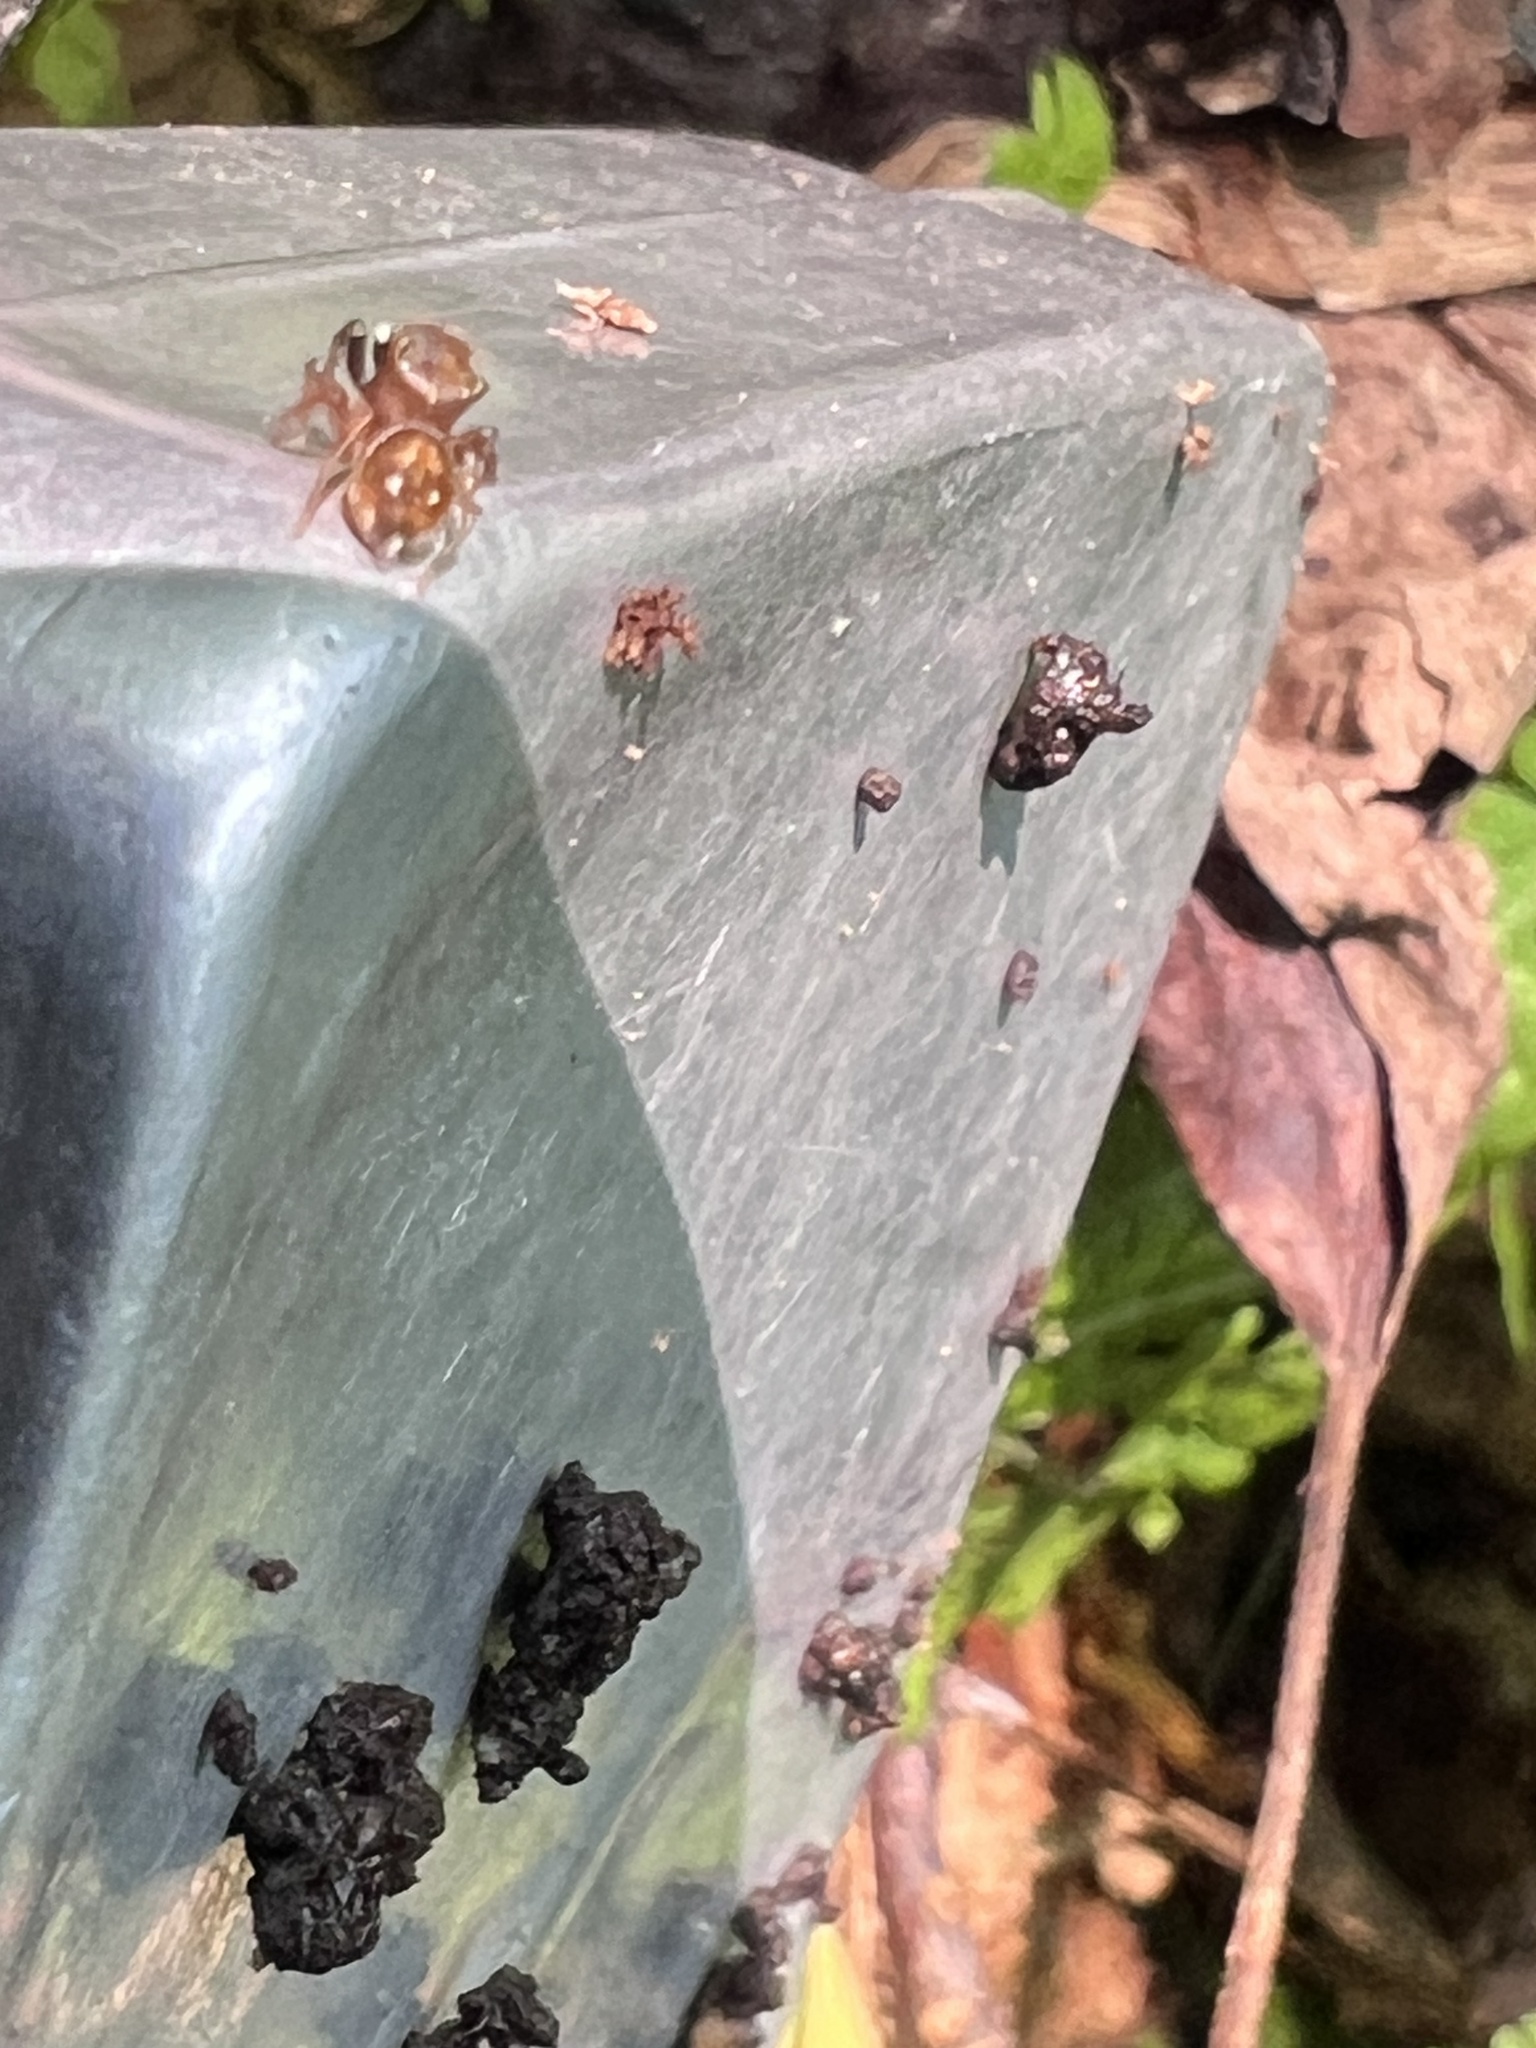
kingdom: Animalia
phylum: Arthropoda
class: Arachnida
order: Araneae
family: Salticidae
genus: Chinattus
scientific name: Chinattus parvulus
